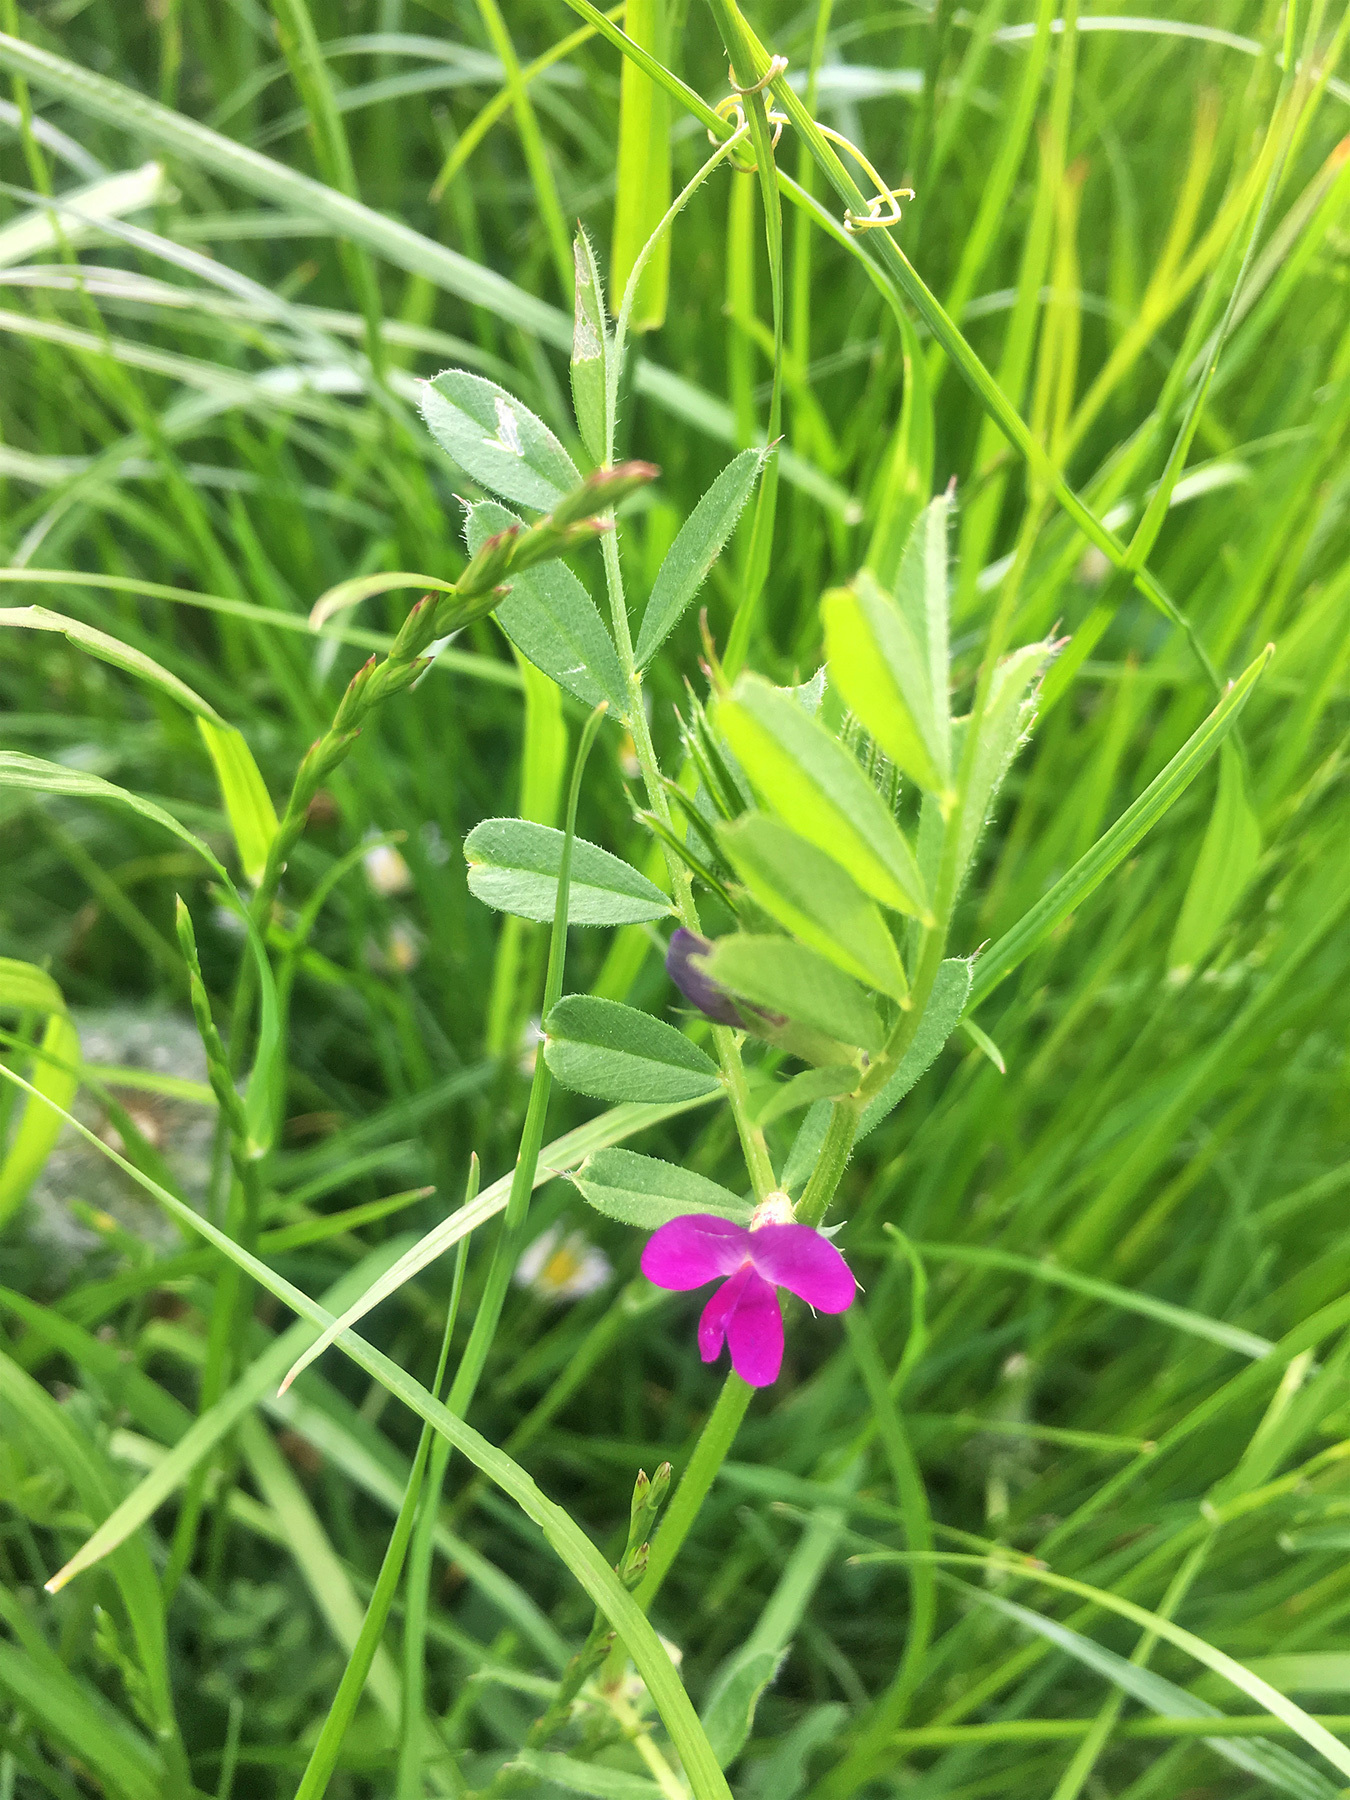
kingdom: Plantae
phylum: Tracheophyta
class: Magnoliopsida
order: Fabales
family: Fabaceae
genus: Vicia
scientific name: Vicia sativa
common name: Garden vetch
